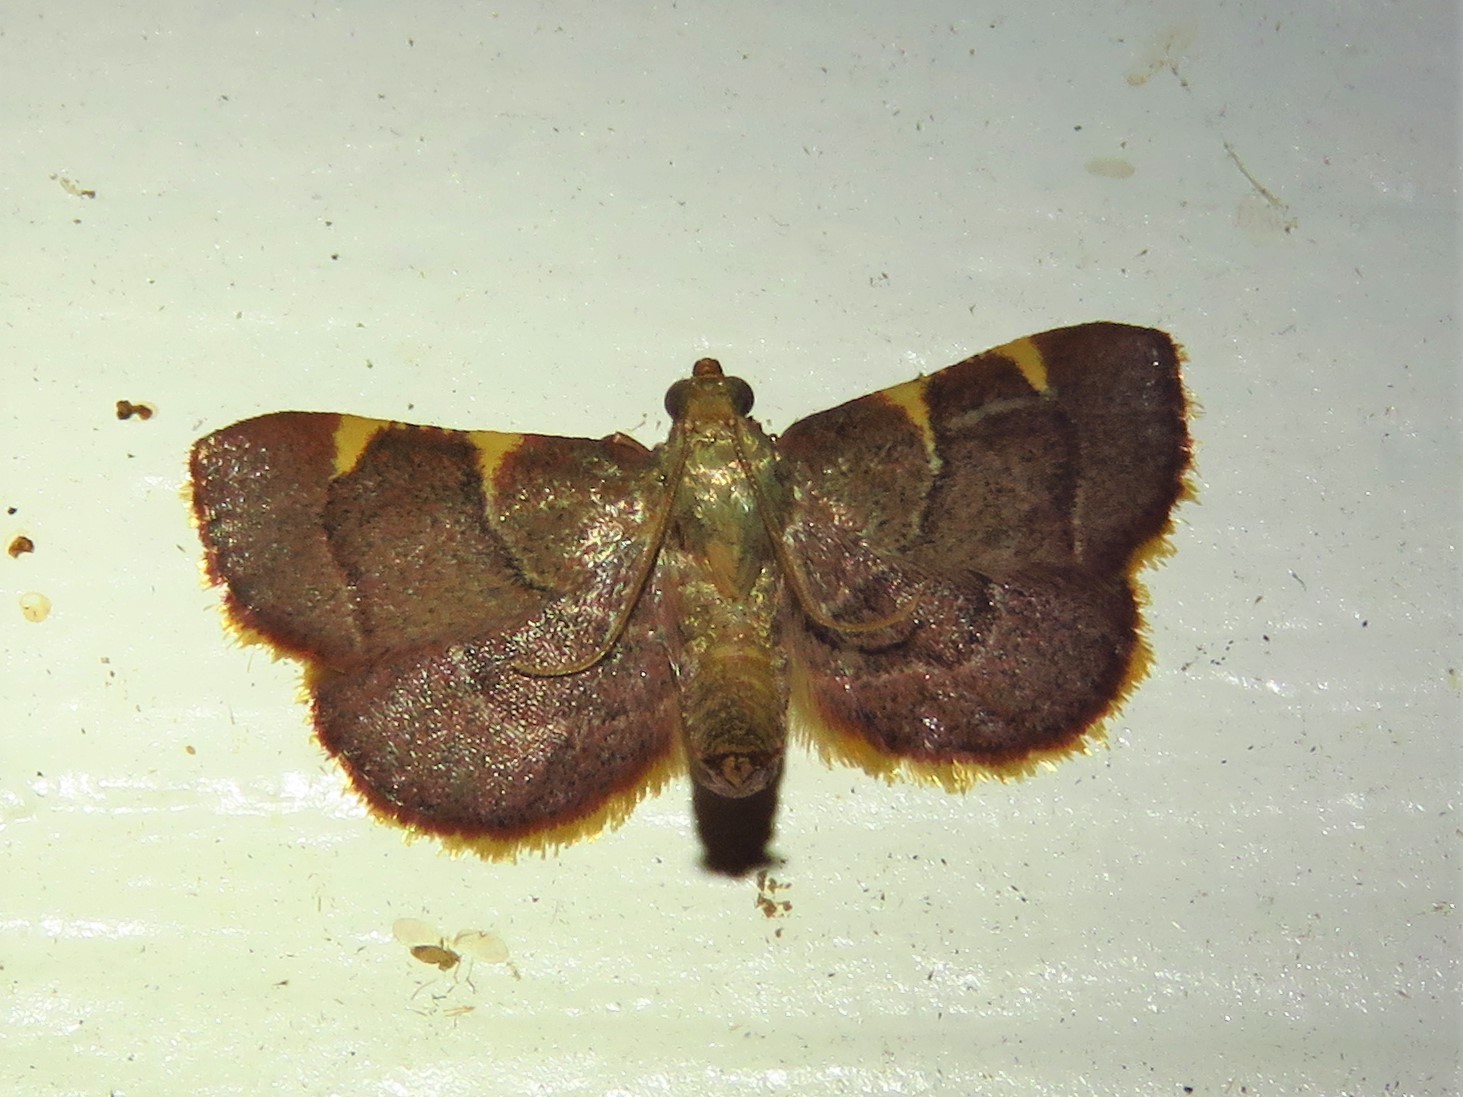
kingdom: Animalia
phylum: Arthropoda
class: Insecta
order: Lepidoptera
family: Pyralidae
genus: Hypsopygia
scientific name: Hypsopygia olinalis
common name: Yellow-fringed dolichomia moth
